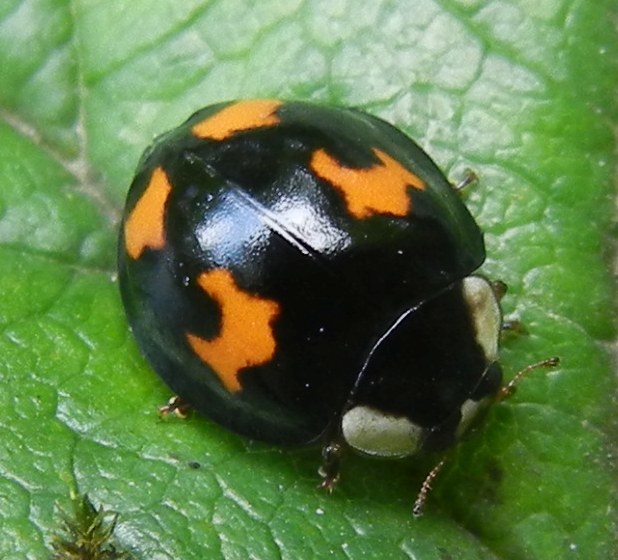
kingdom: Animalia
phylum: Arthropoda
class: Insecta
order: Coleoptera
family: Coccinellidae
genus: Harmonia
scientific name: Harmonia axyridis
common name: Harlequin ladybird
